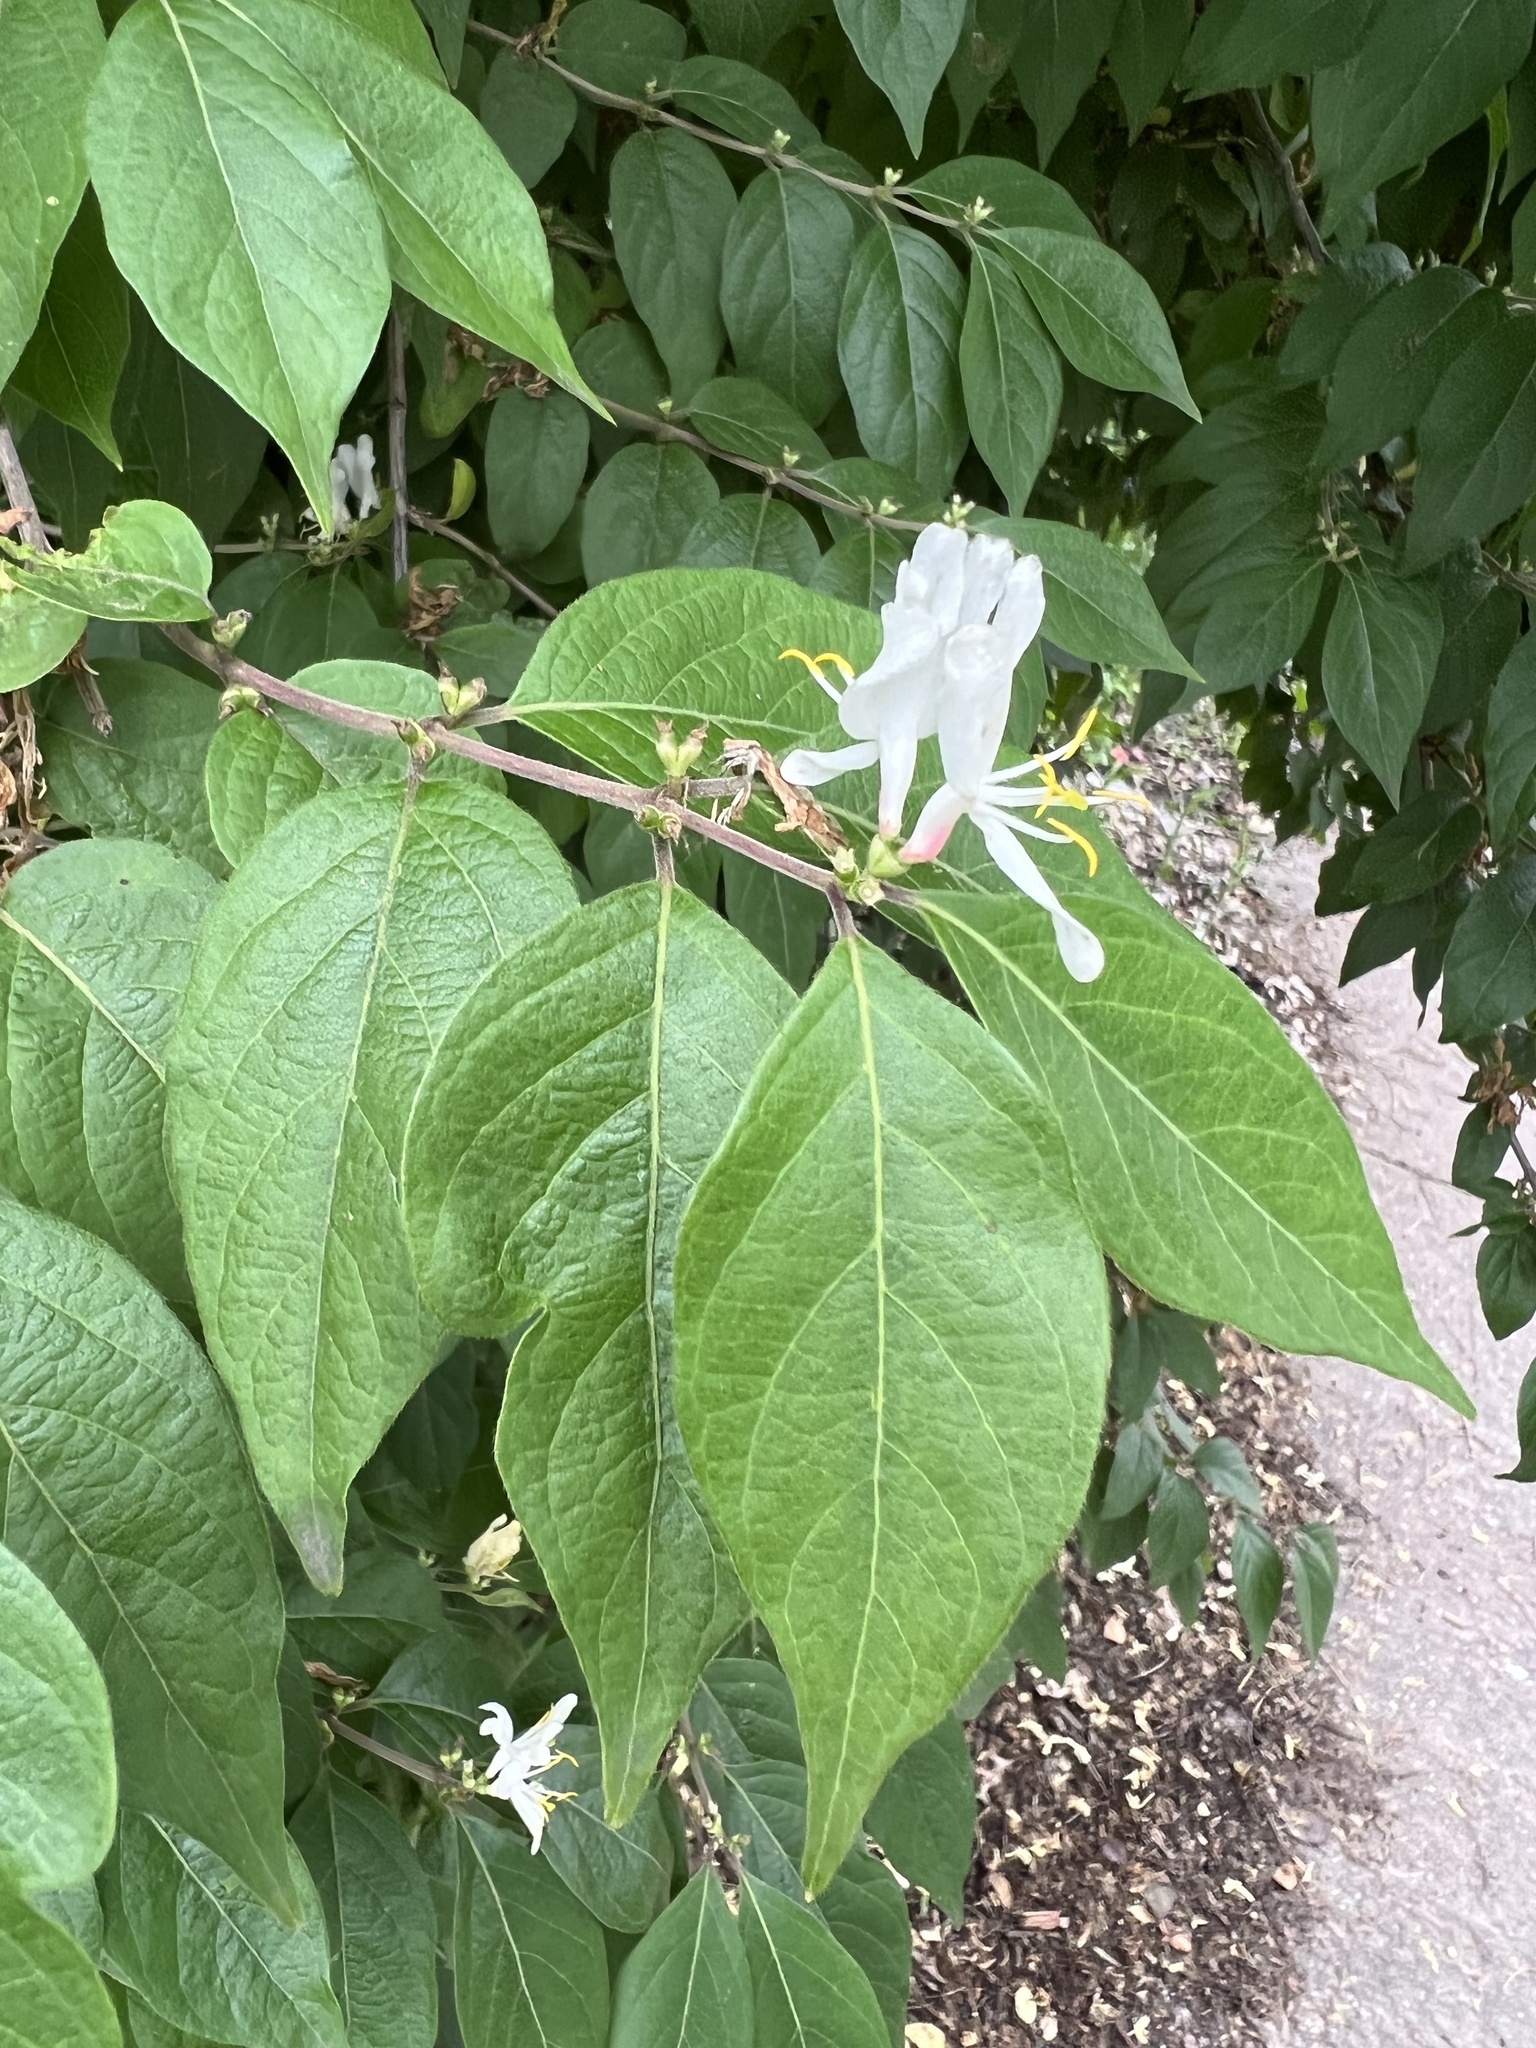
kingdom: Plantae
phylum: Tracheophyta
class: Magnoliopsida
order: Dipsacales
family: Caprifoliaceae
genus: Lonicera
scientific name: Lonicera maackii
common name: Amur honeysuckle
